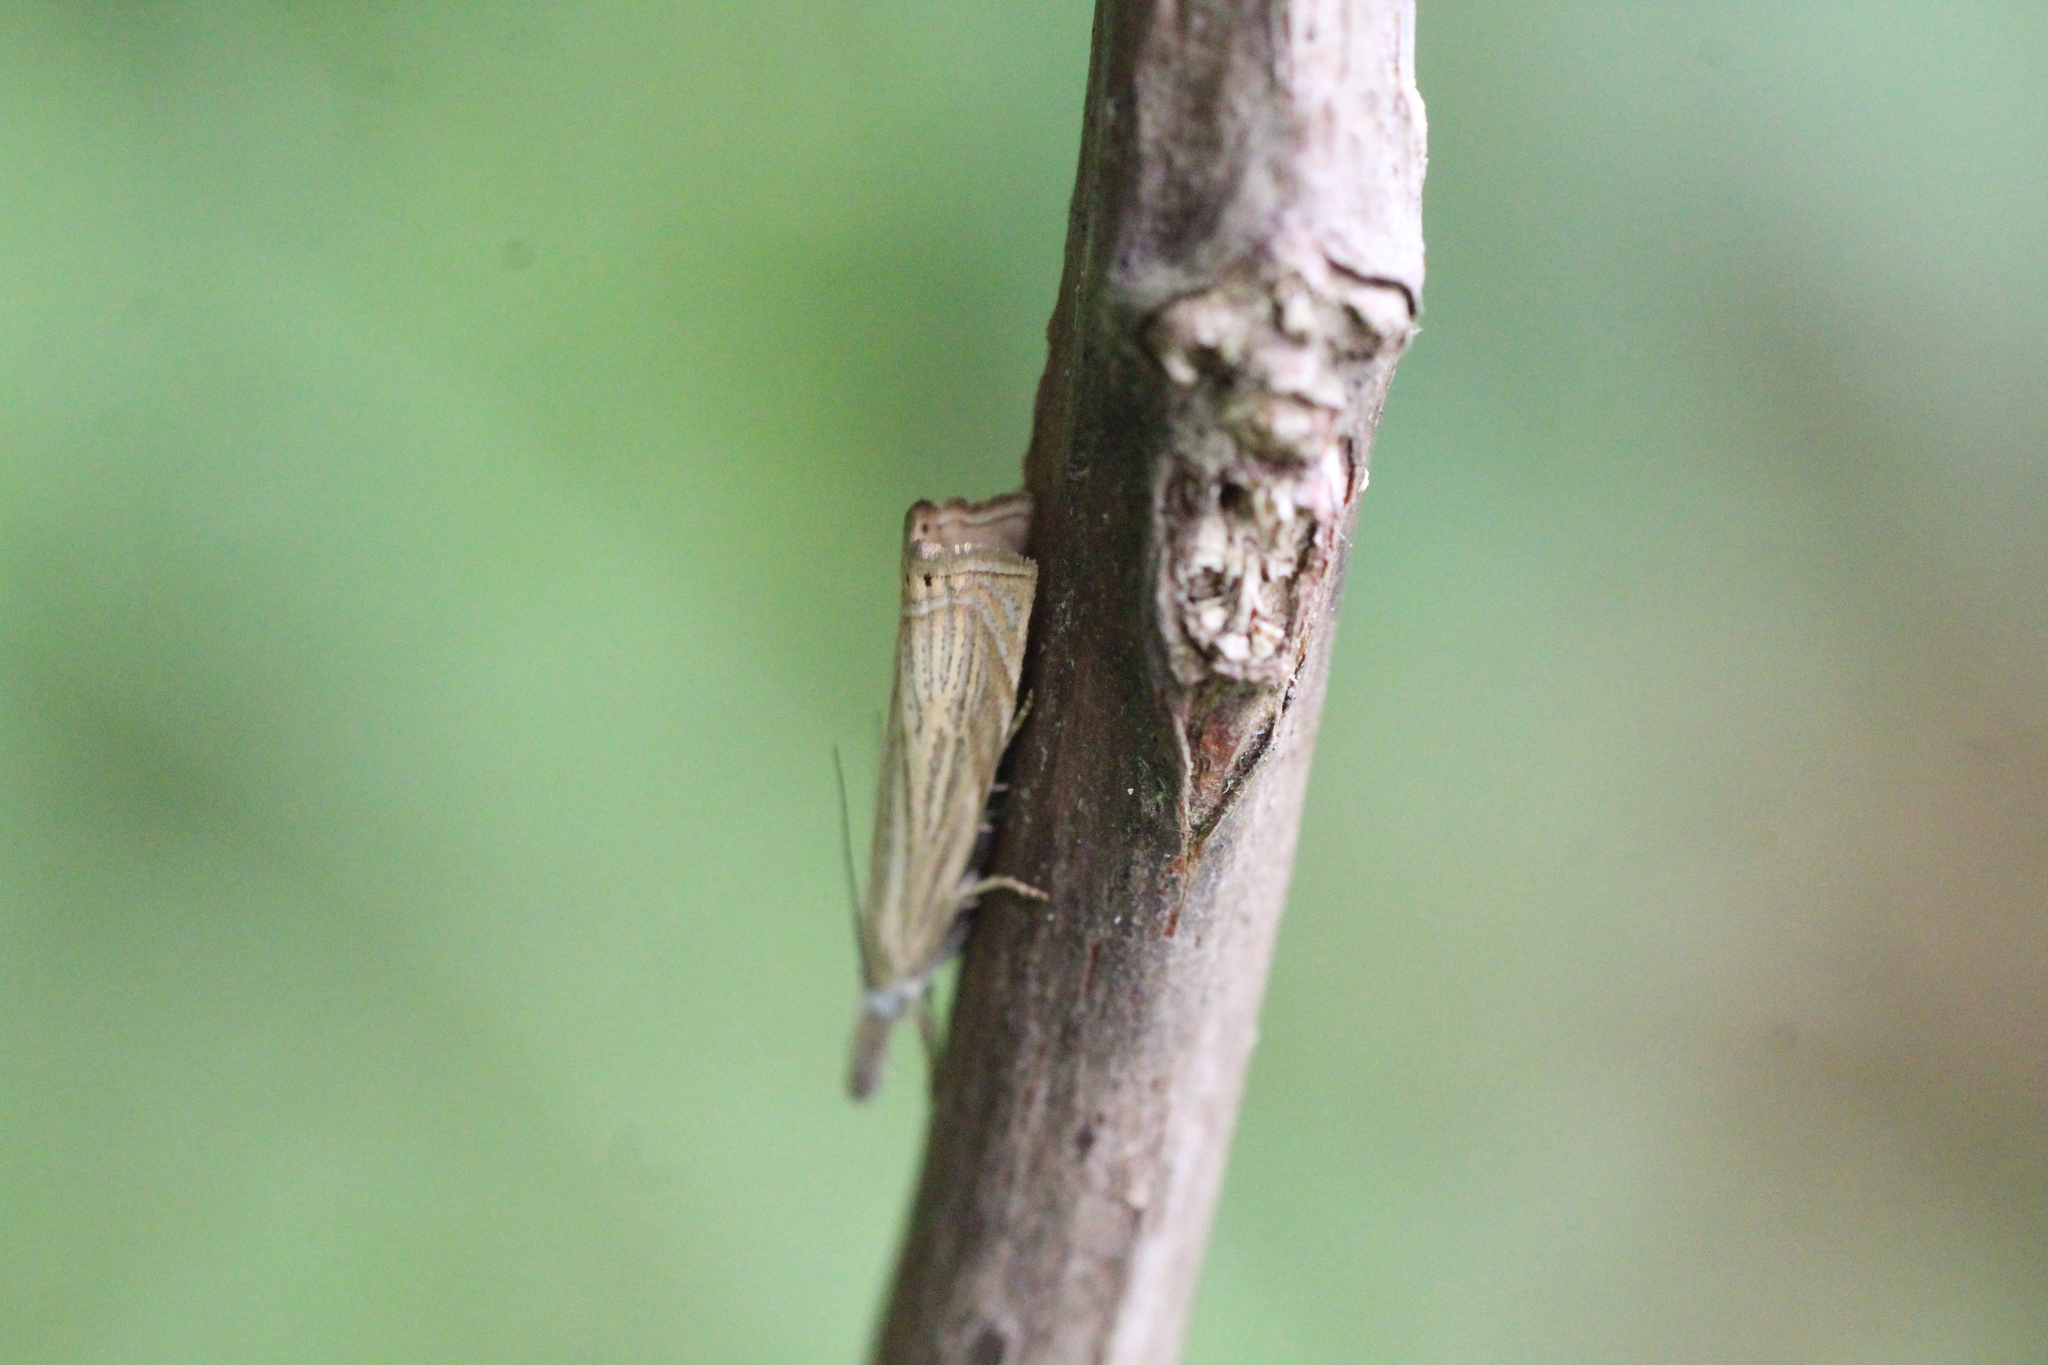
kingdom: Animalia
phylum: Arthropoda
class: Insecta
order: Lepidoptera
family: Crambidae
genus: Chrysoteuchia
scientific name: Chrysoteuchia culmella
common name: Garden grass-veneer
